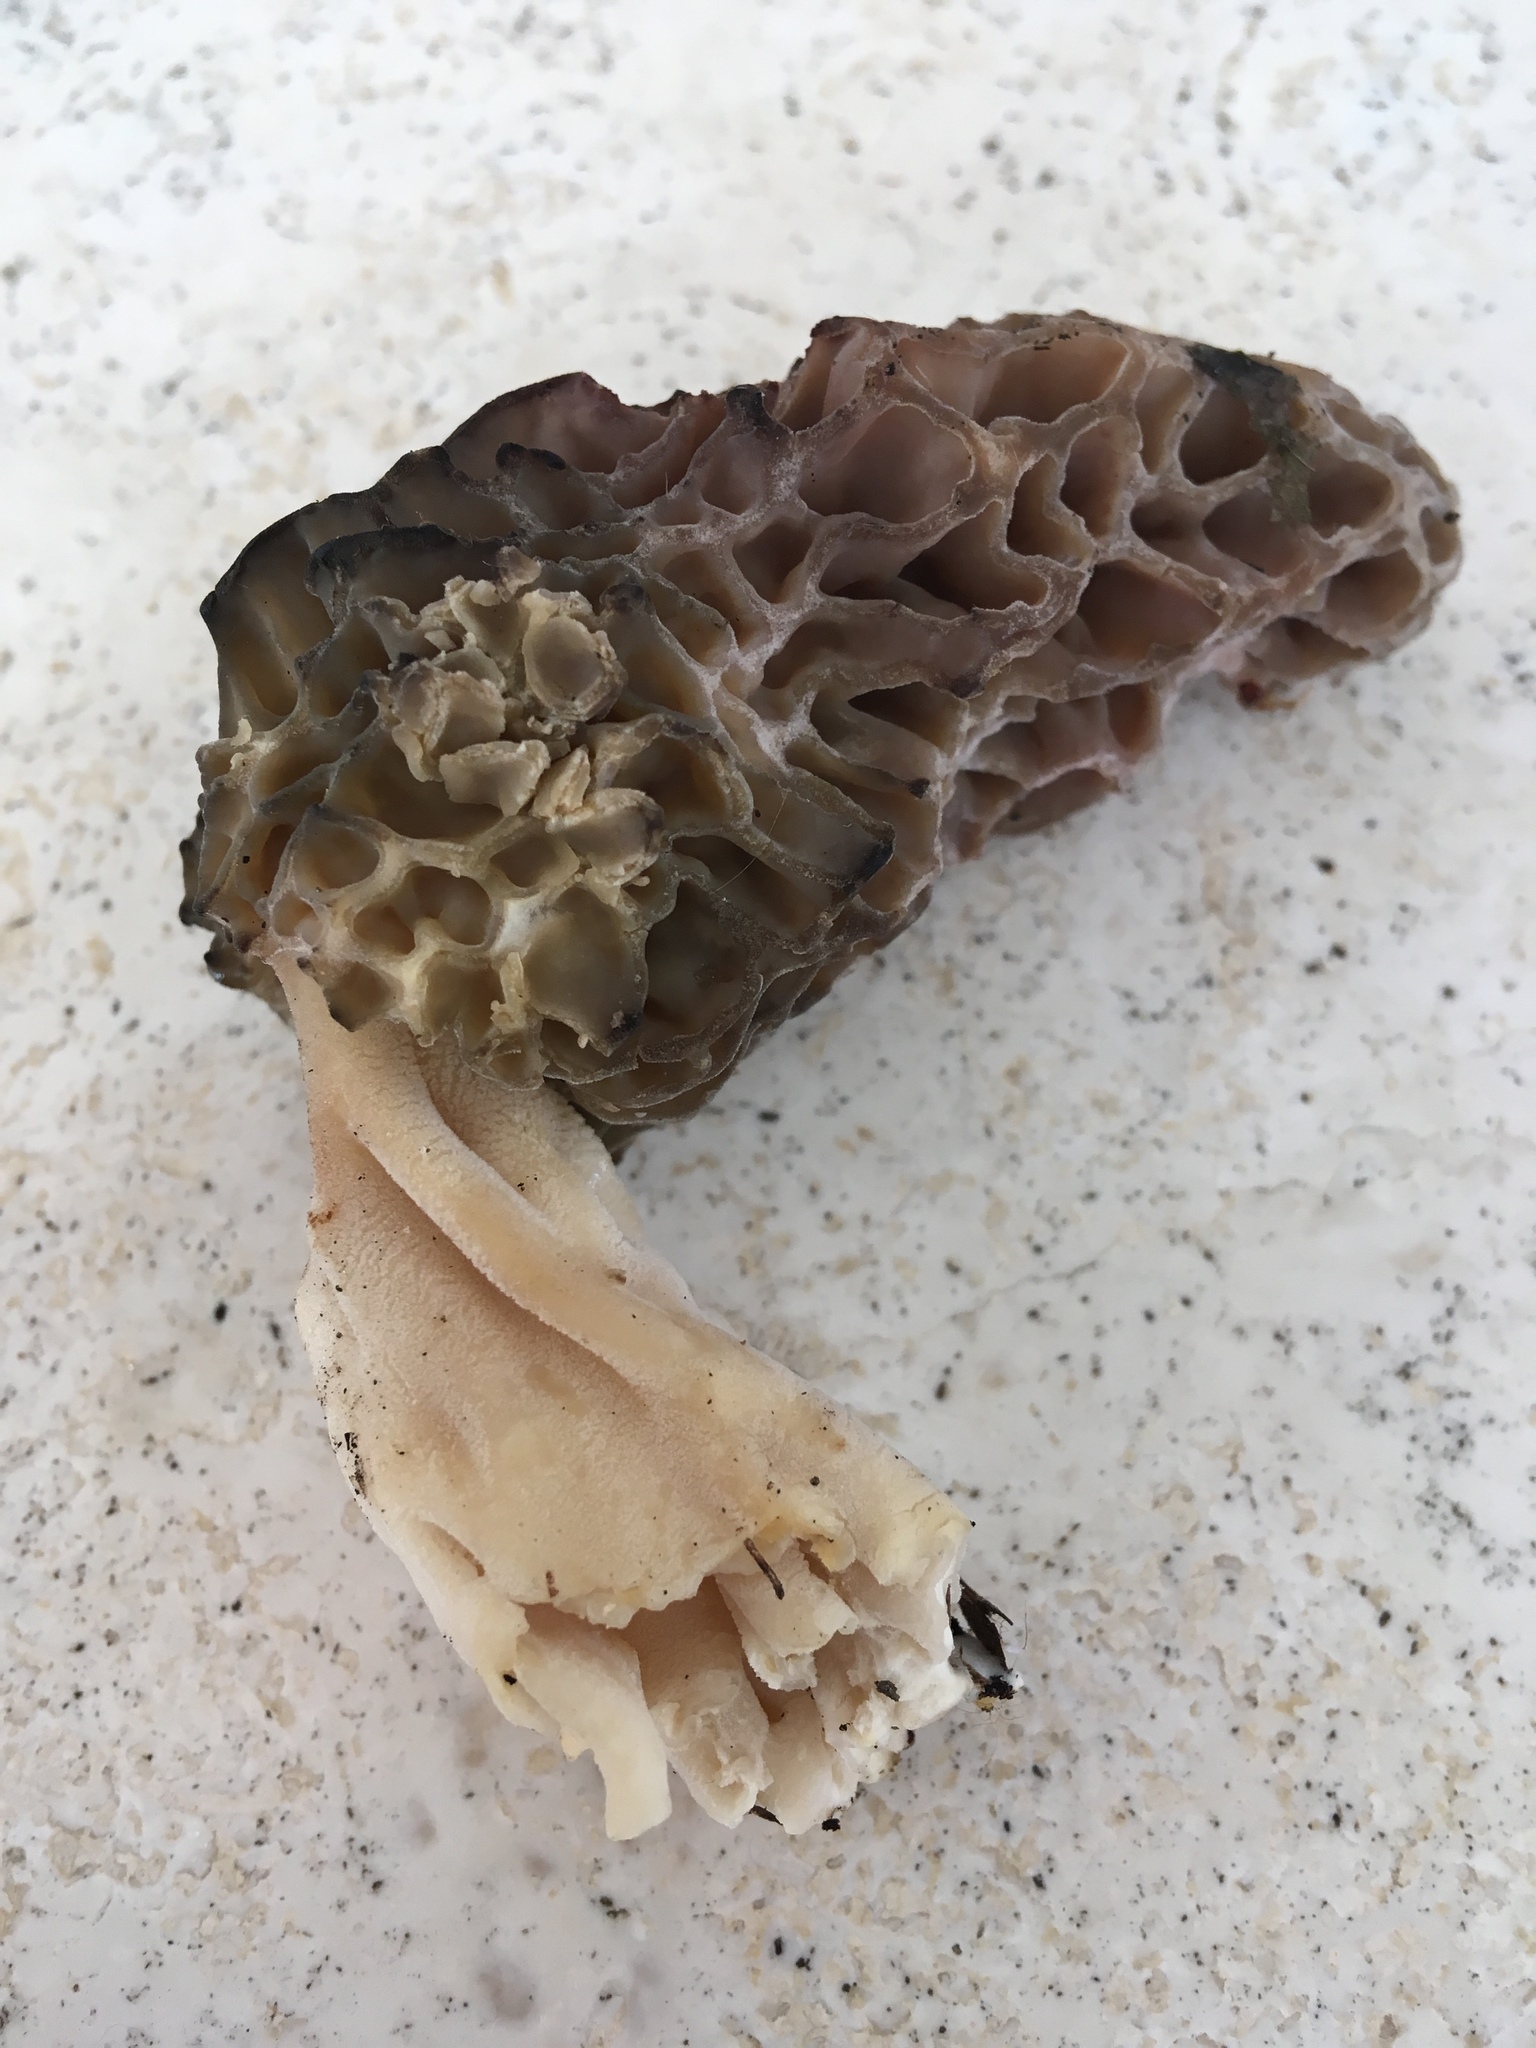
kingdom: Fungi
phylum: Ascomycota
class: Pezizomycetes
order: Pezizales
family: Morchellaceae
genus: Morchella
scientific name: Morchella angusticeps
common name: Black morel
